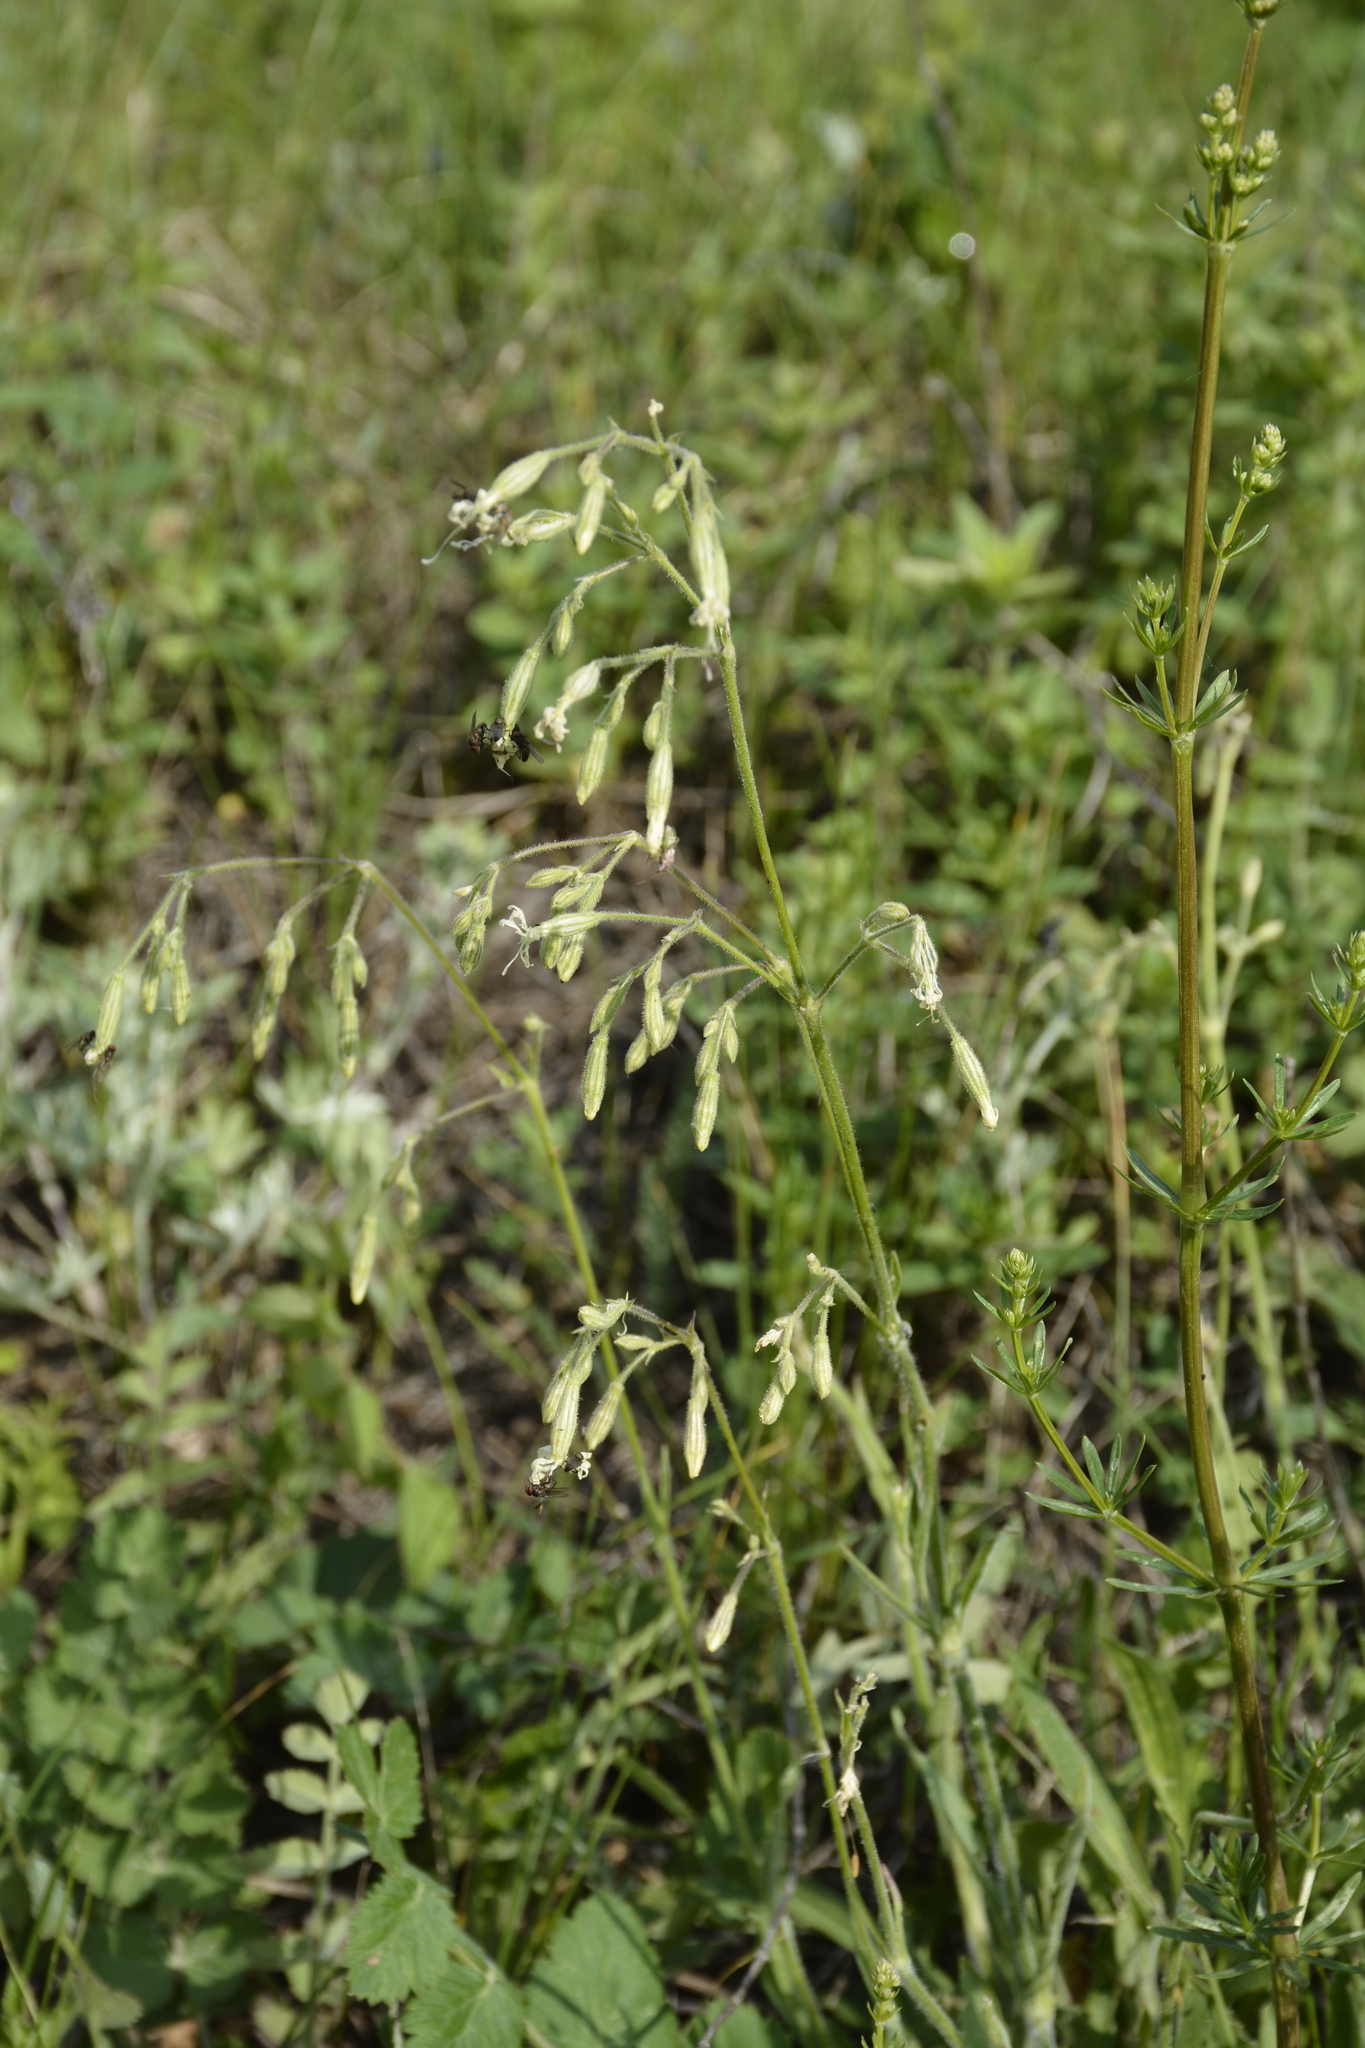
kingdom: Plantae
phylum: Tracheophyta
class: Magnoliopsida
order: Caryophyllales
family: Caryophyllaceae
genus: Silene
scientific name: Silene nutans
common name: Nottingham catchfly
